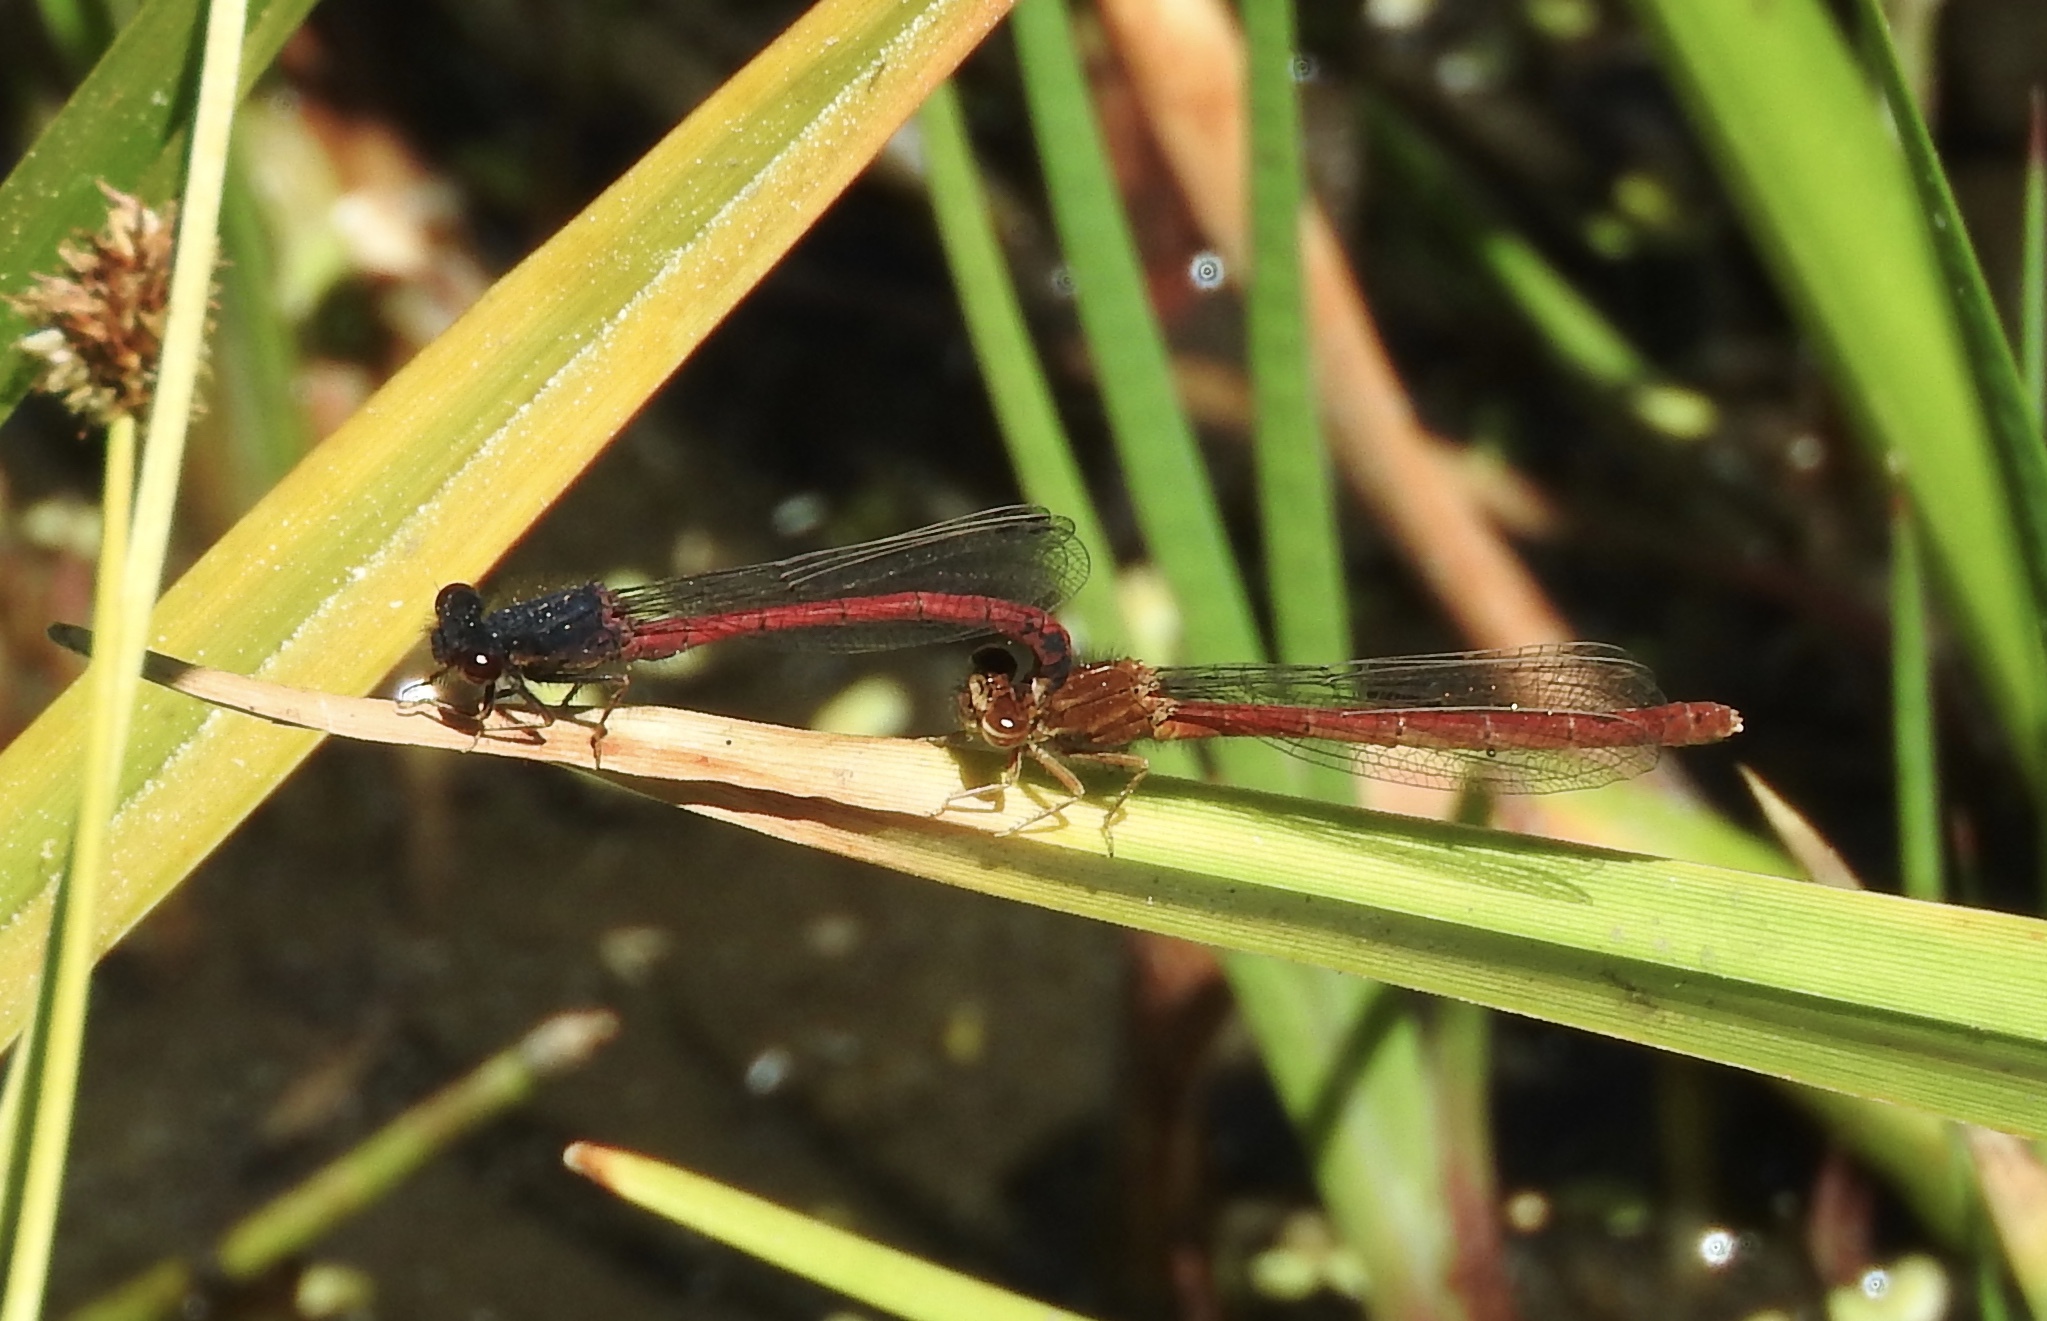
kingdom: Animalia
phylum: Arthropoda
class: Insecta
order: Odonata
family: Coenagrionidae
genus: Amphiagrion
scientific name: Amphiagrion abbreviatum
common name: Western red damsel
